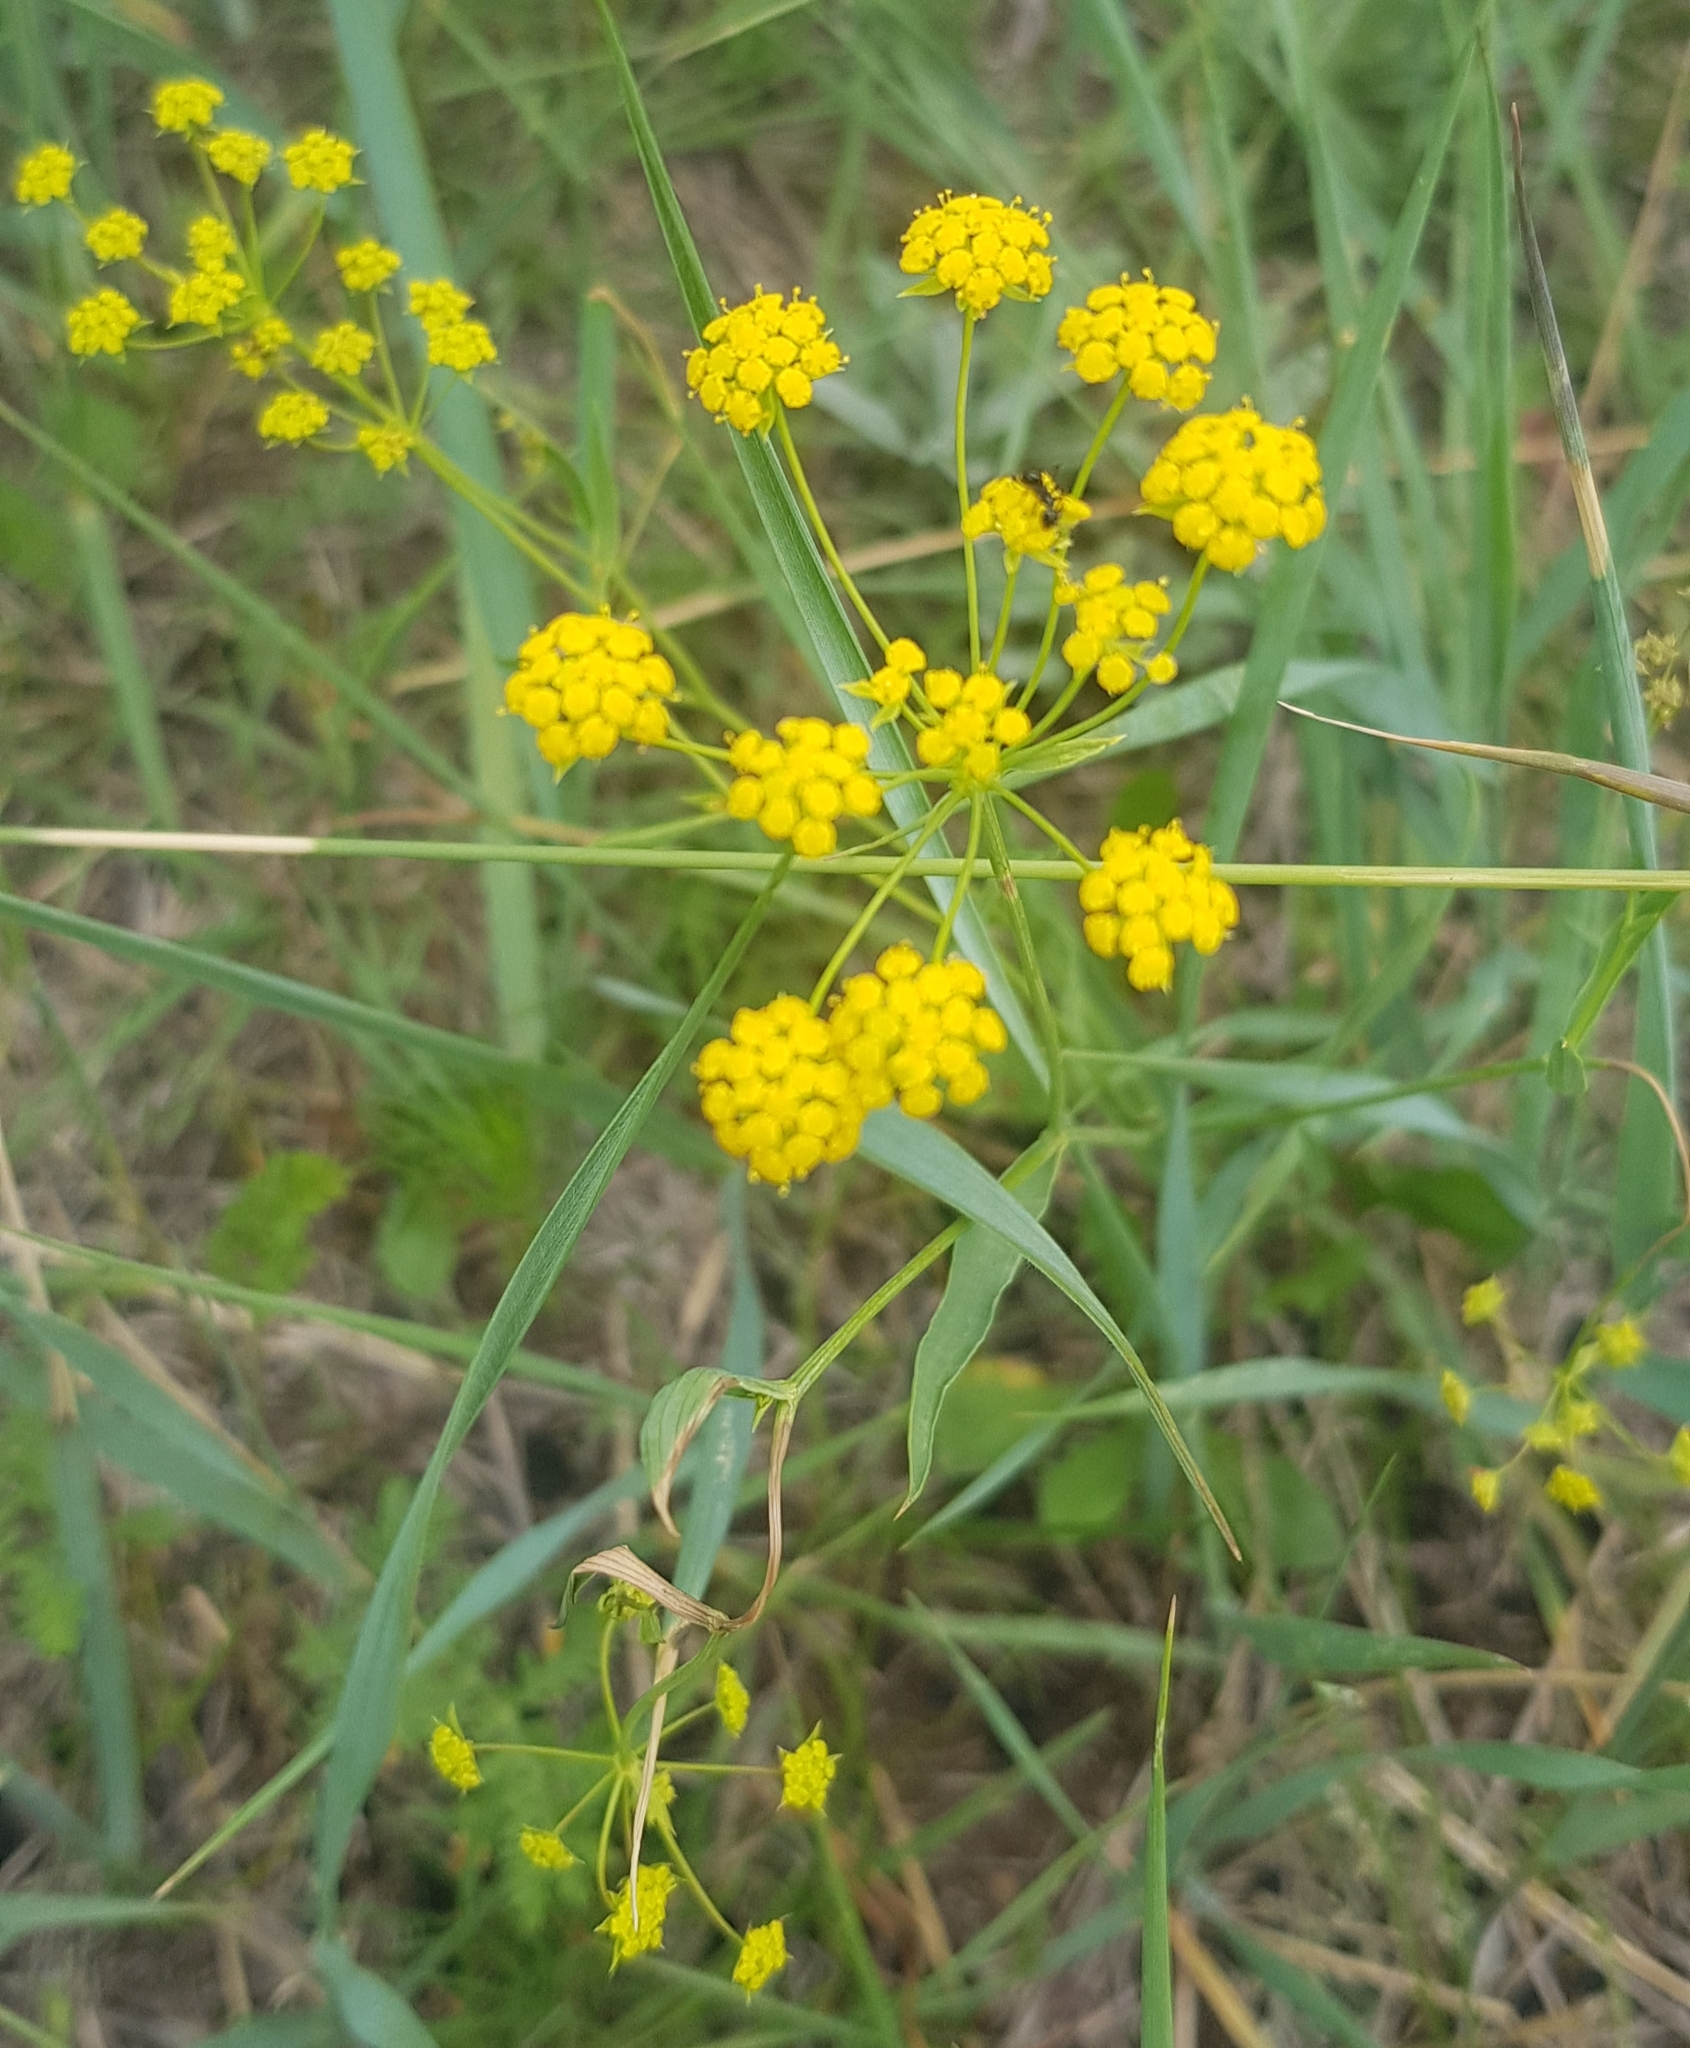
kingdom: Plantae
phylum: Tracheophyta
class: Magnoliopsida
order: Apiales
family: Apiaceae
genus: Bupleurum
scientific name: Bupleurum scorzonerifolium
